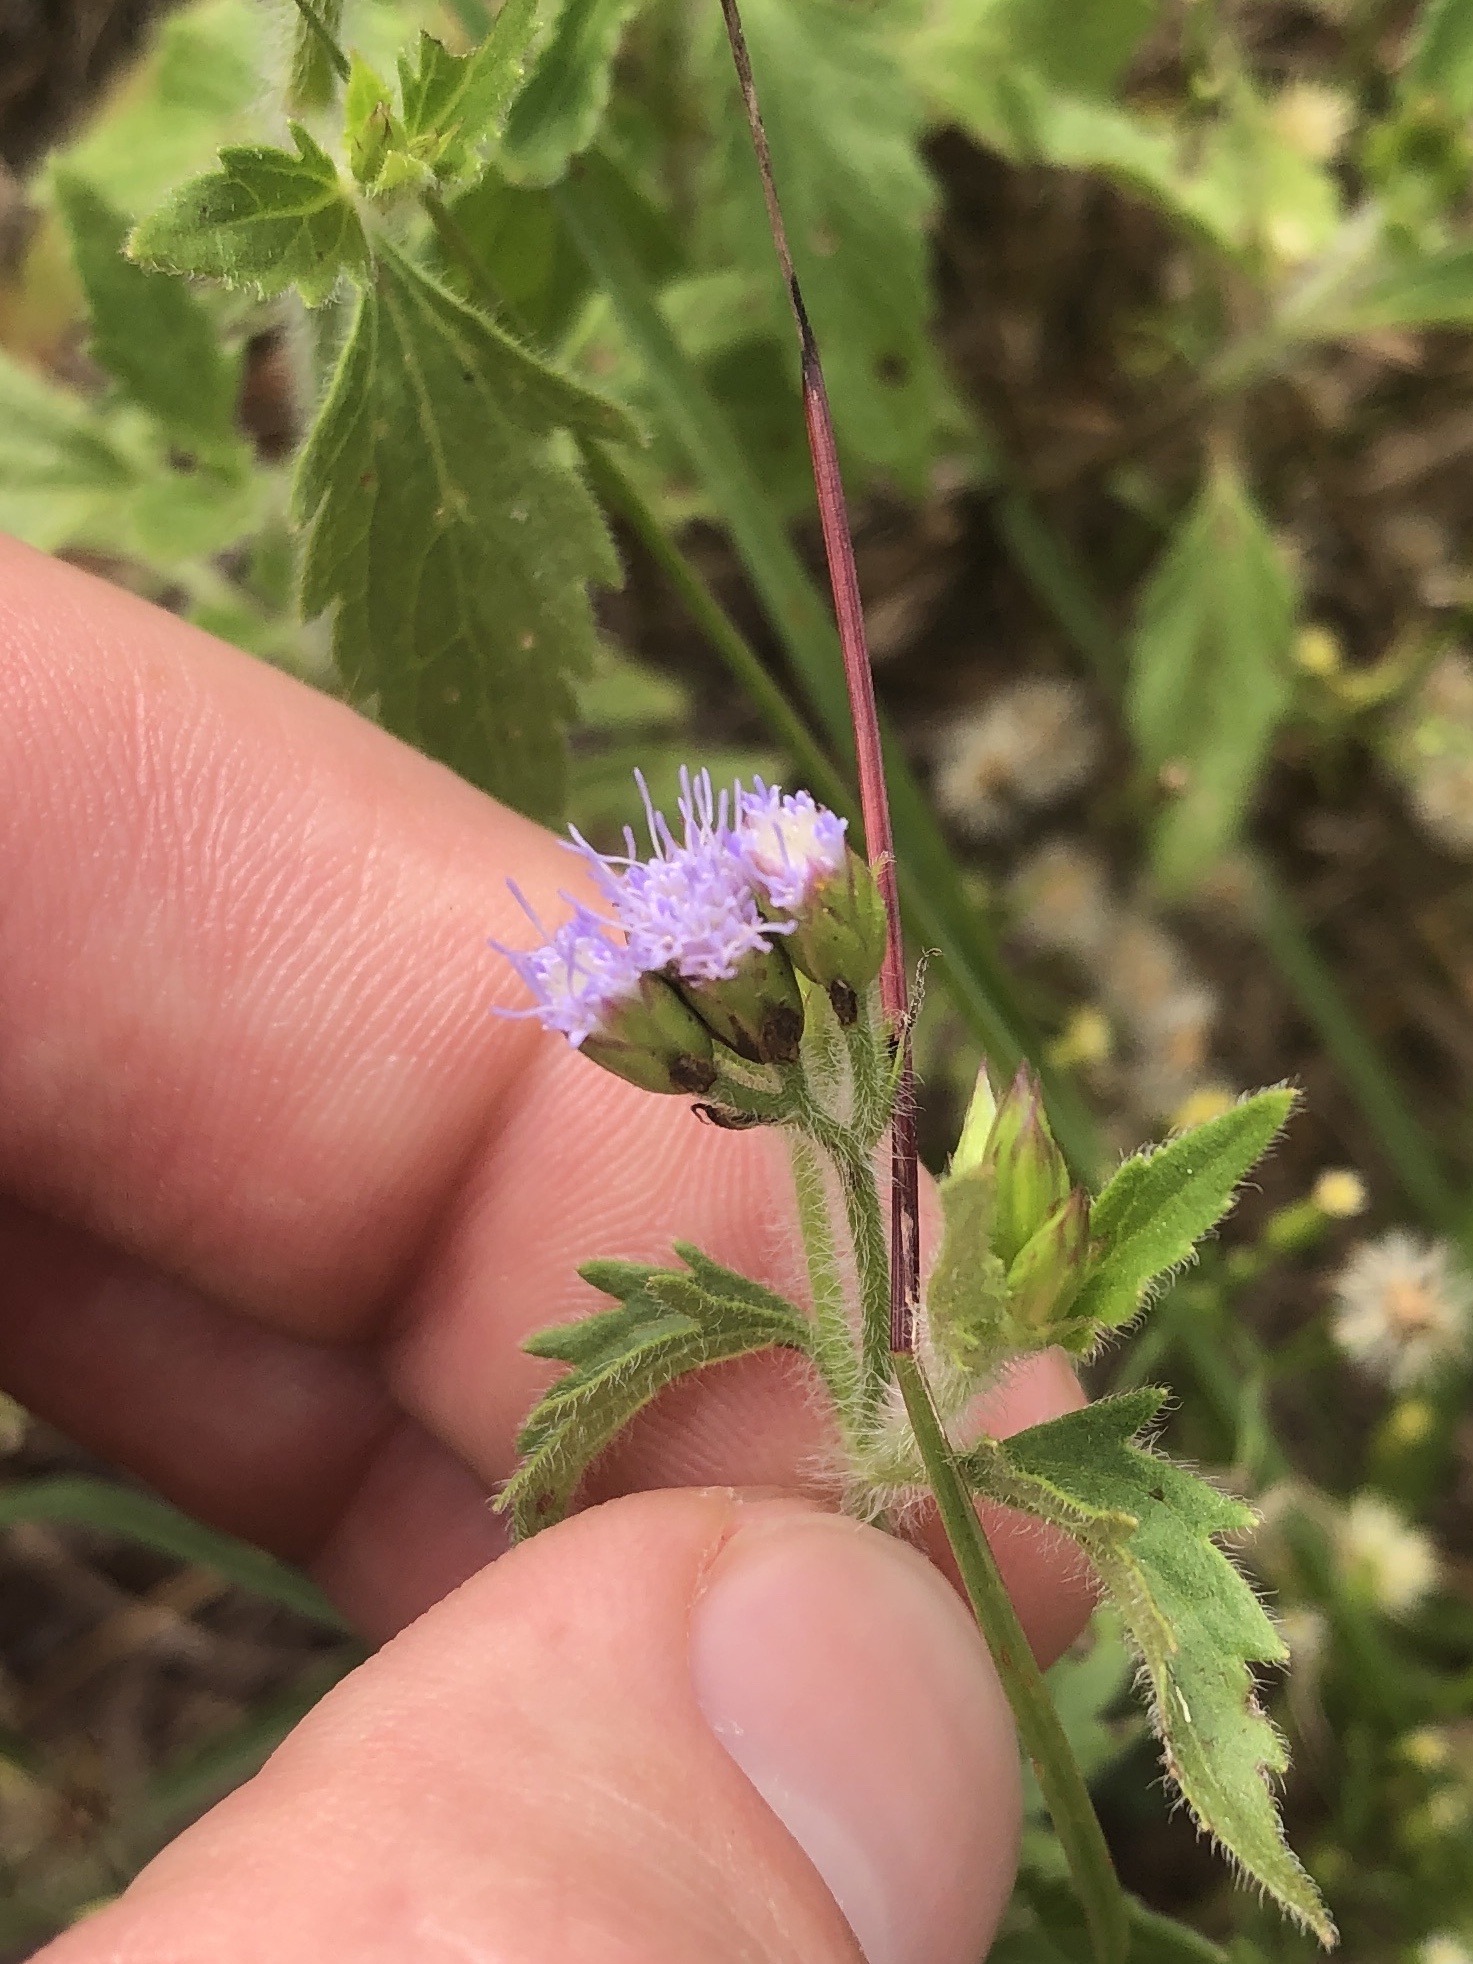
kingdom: Plantae
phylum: Tracheophyta
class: Magnoliopsida
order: Asterales
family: Asteraceae
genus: Praxelis
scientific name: Praxelis clematidea
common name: Praxelis
